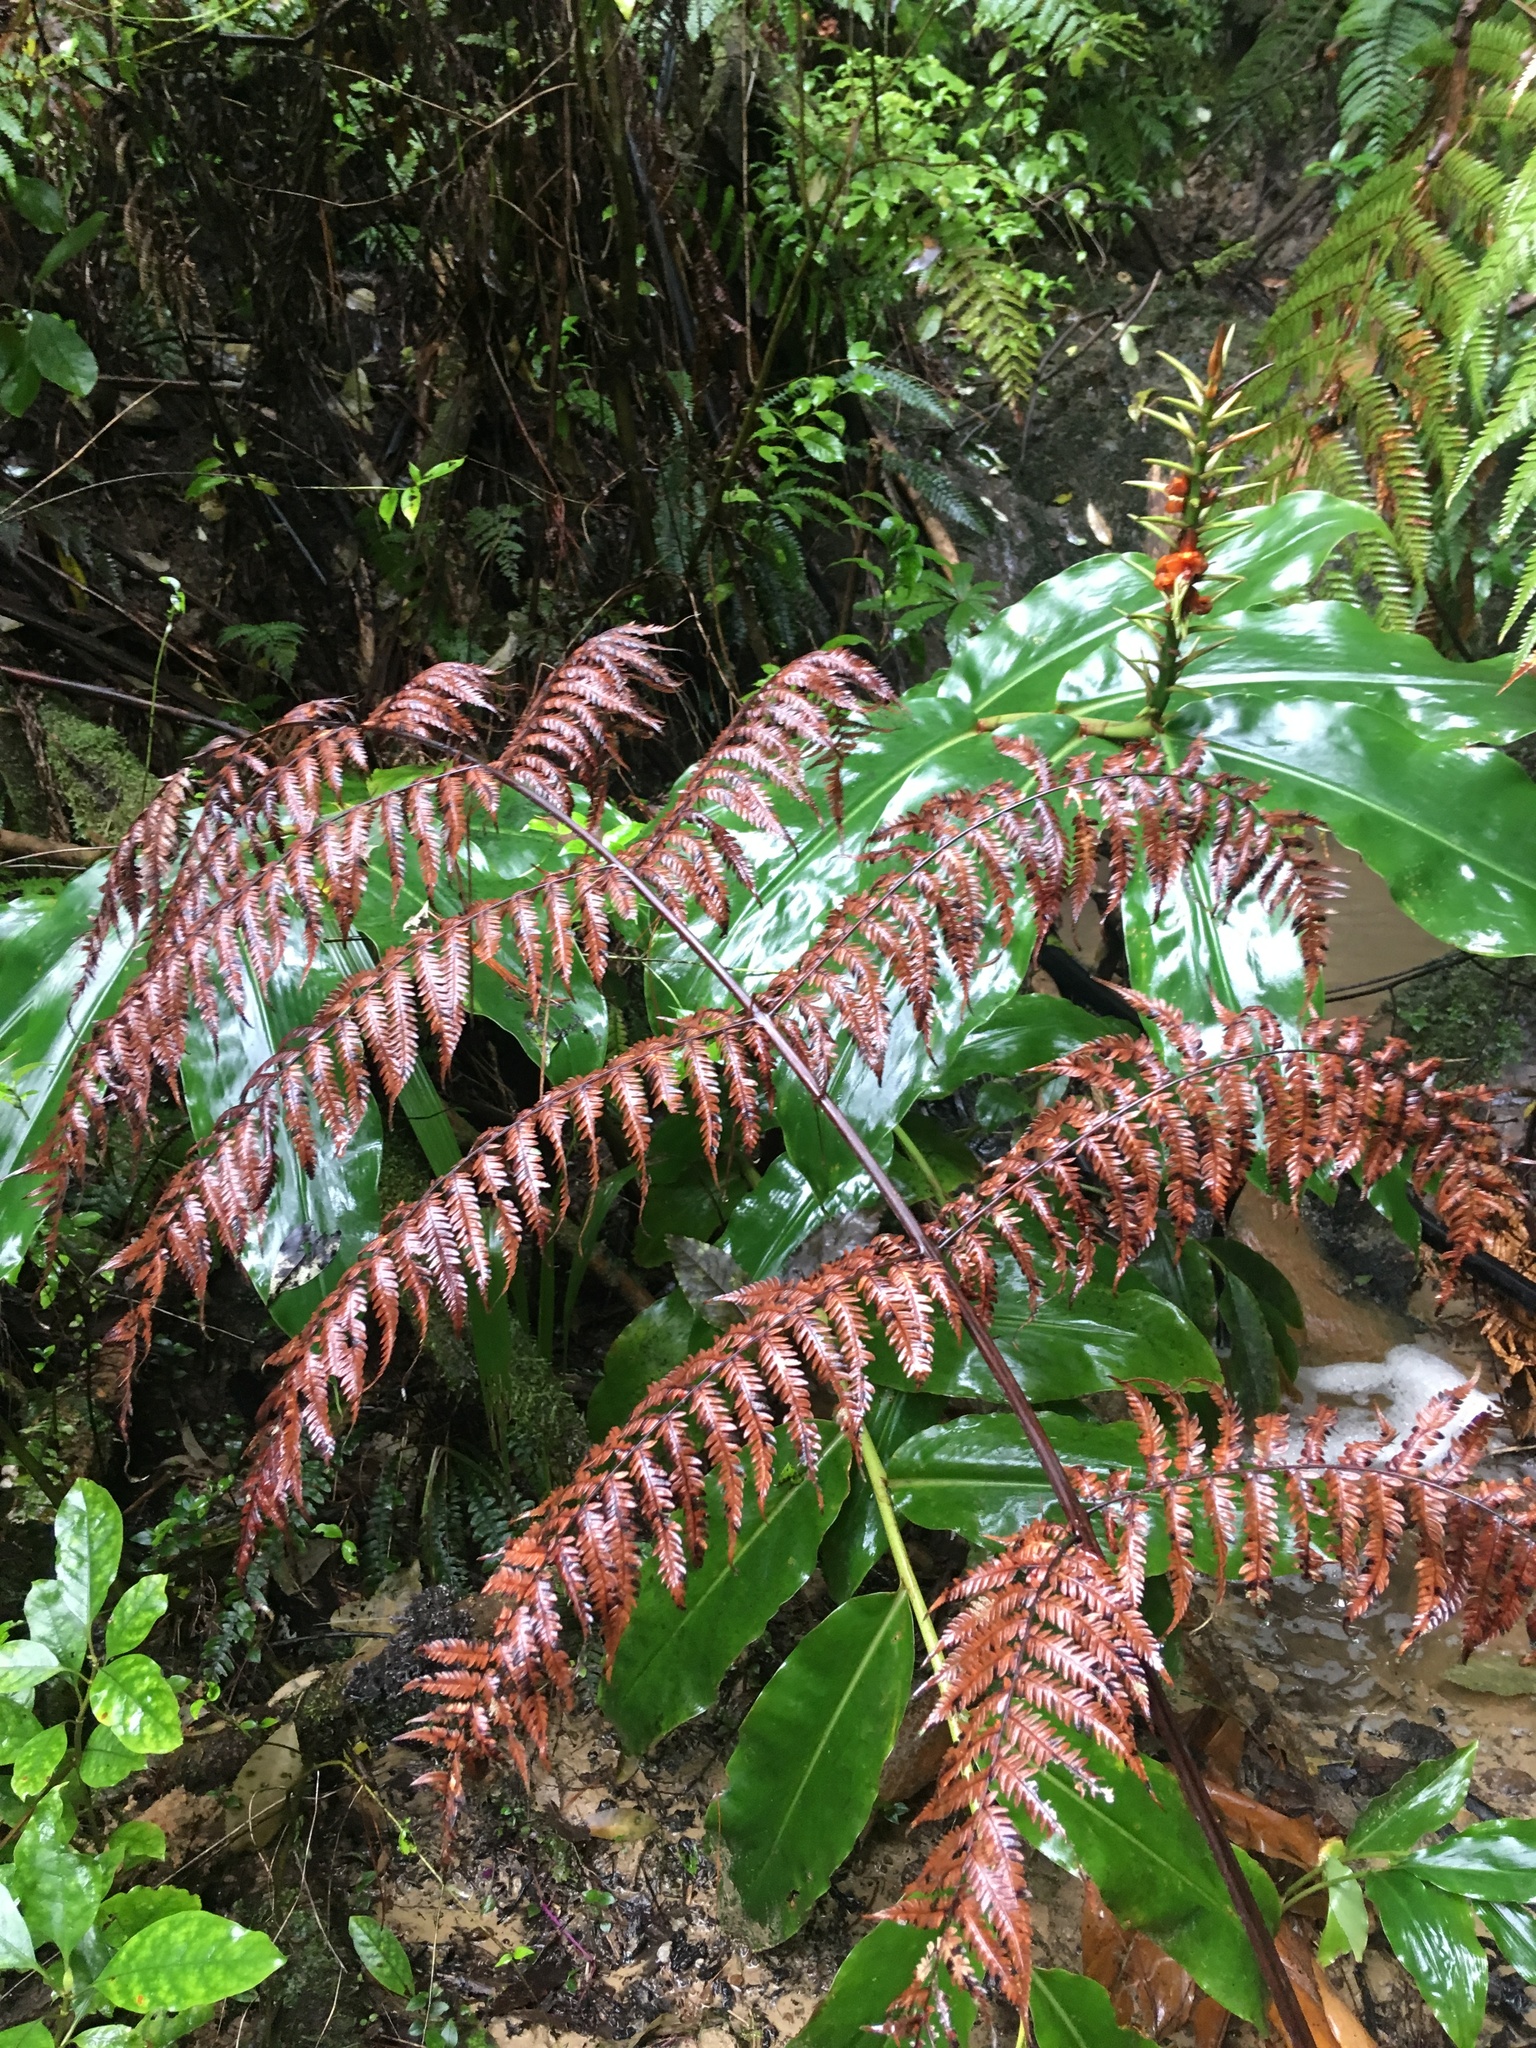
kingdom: Plantae
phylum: Tracheophyta
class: Magnoliopsida
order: Gentianales
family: Rubiaceae
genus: Coprosma
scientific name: Coprosma autumnalis
